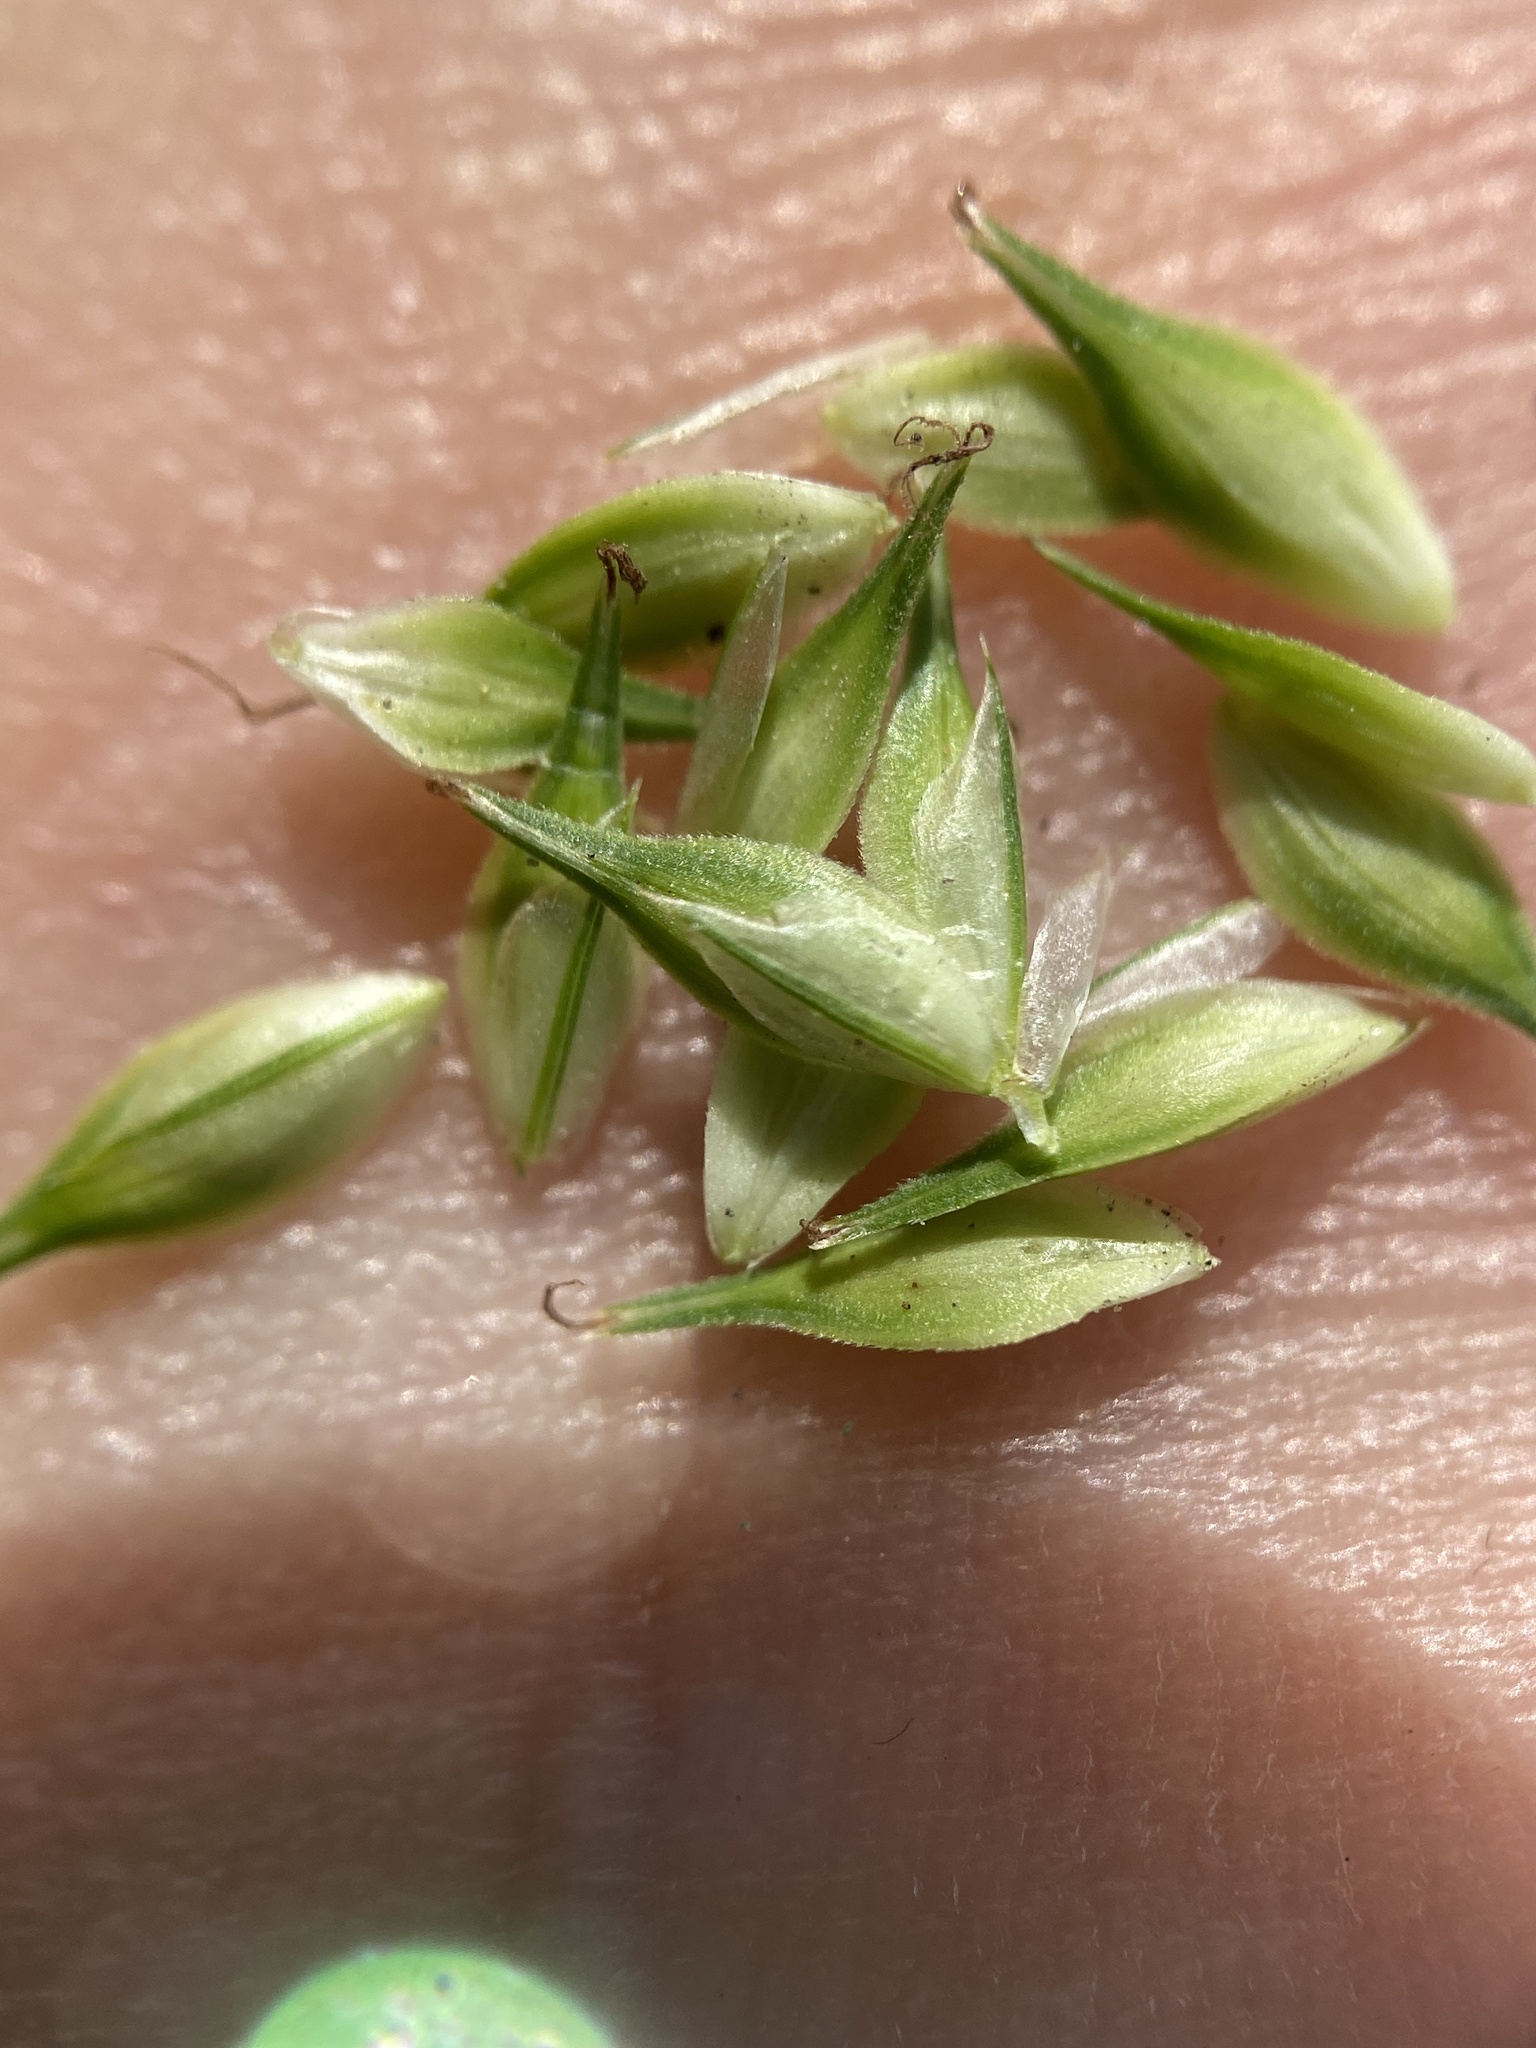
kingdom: Plantae
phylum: Tracheophyta
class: Liliopsida
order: Poales
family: Cyperaceae
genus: Carex
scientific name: Carex secalina
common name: Rye sedge
